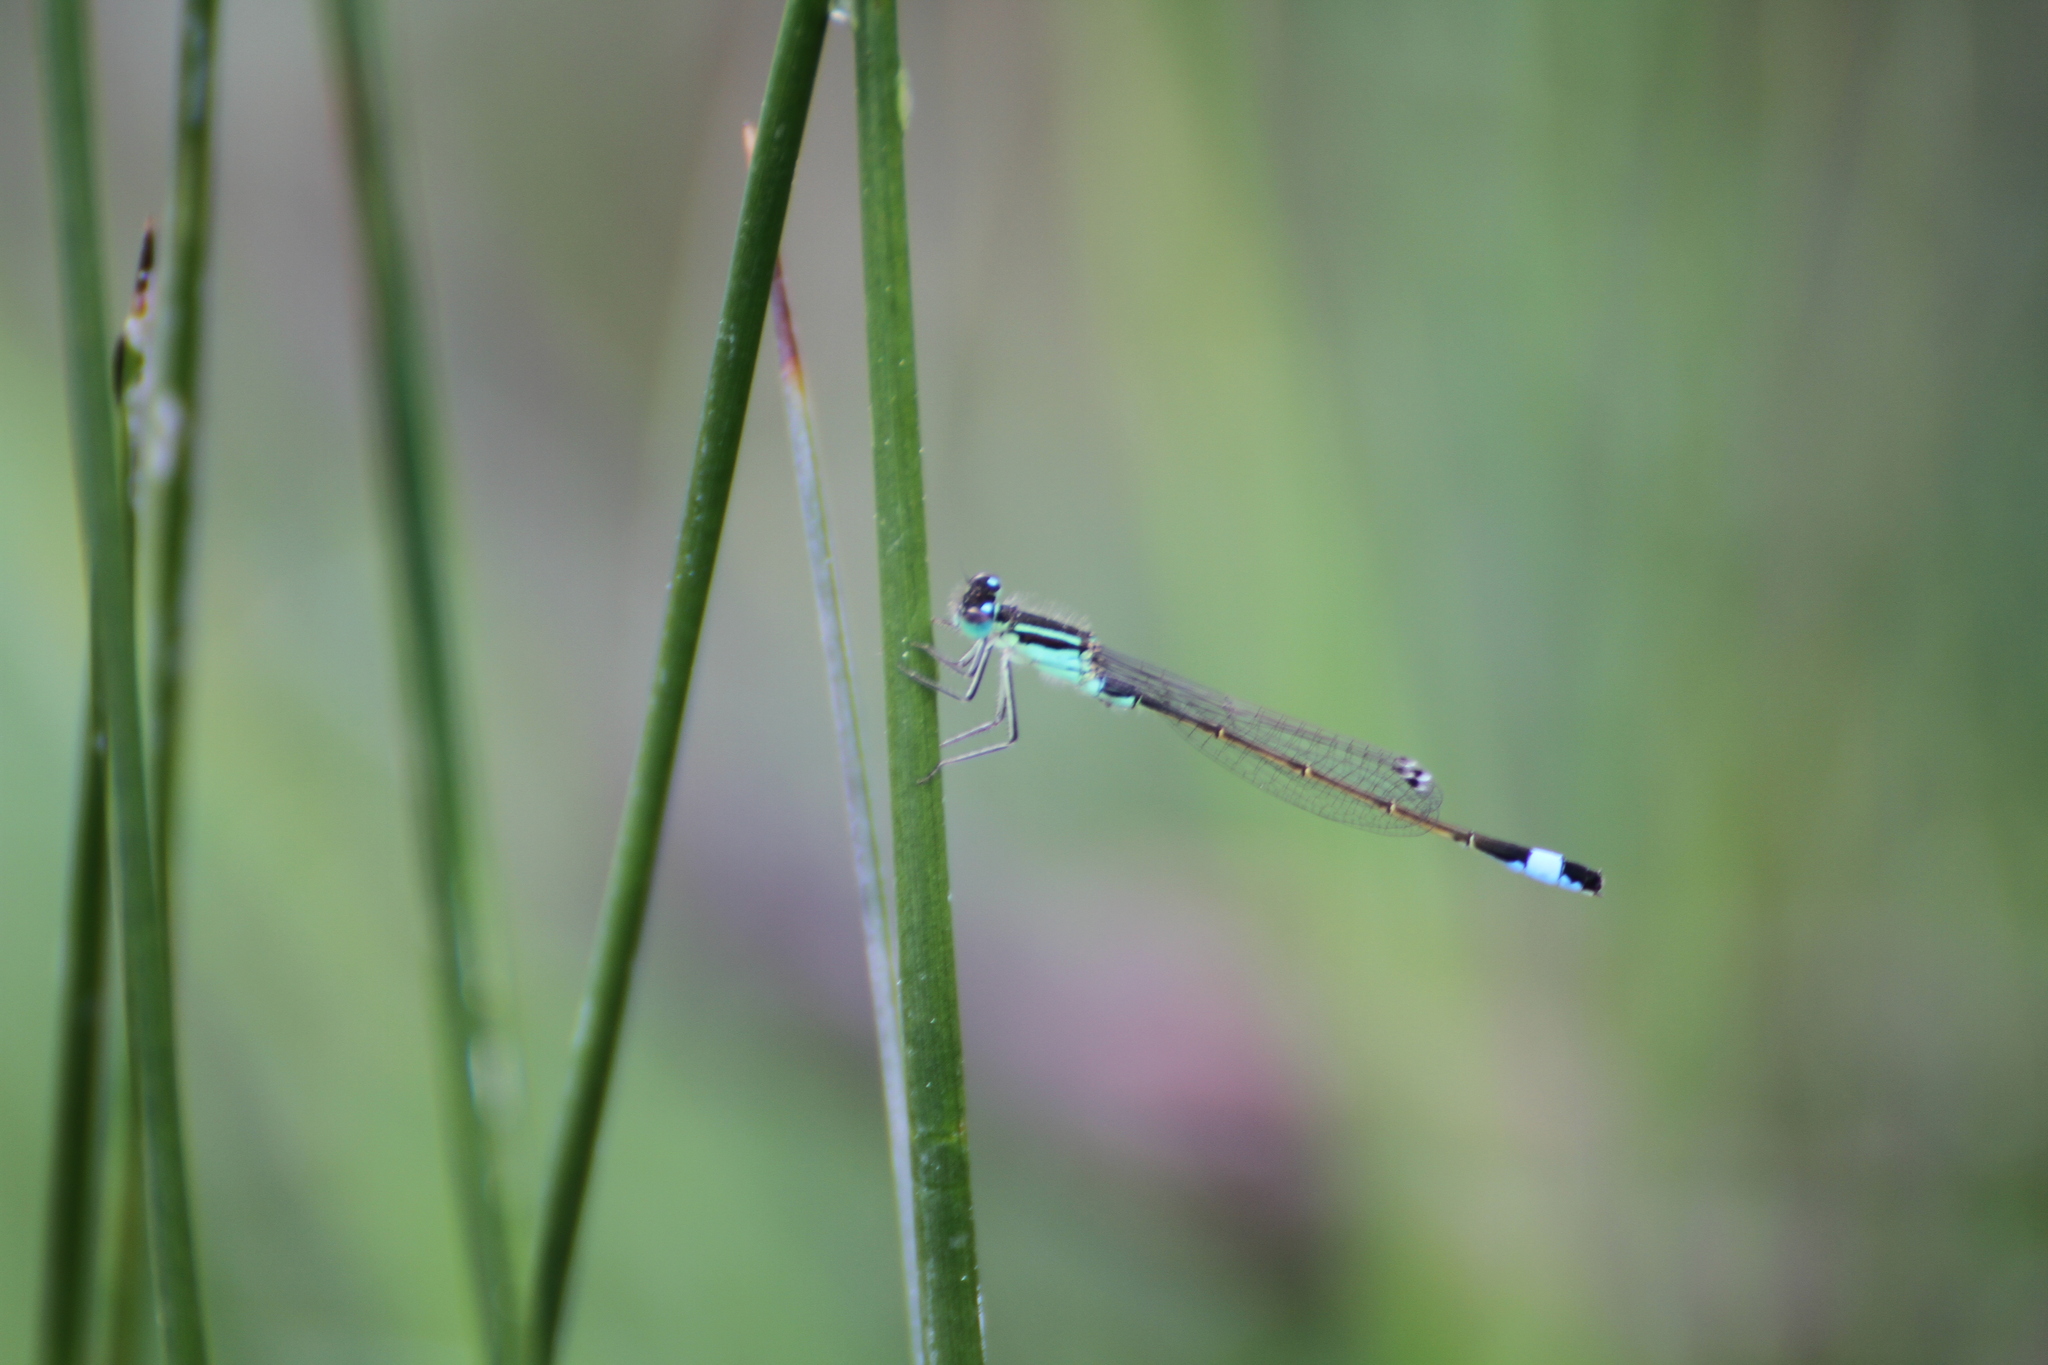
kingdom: Animalia
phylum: Arthropoda
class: Insecta
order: Odonata
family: Coenagrionidae
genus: Ischnura
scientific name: Ischnura elegans
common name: Blue-tailed damselfly
